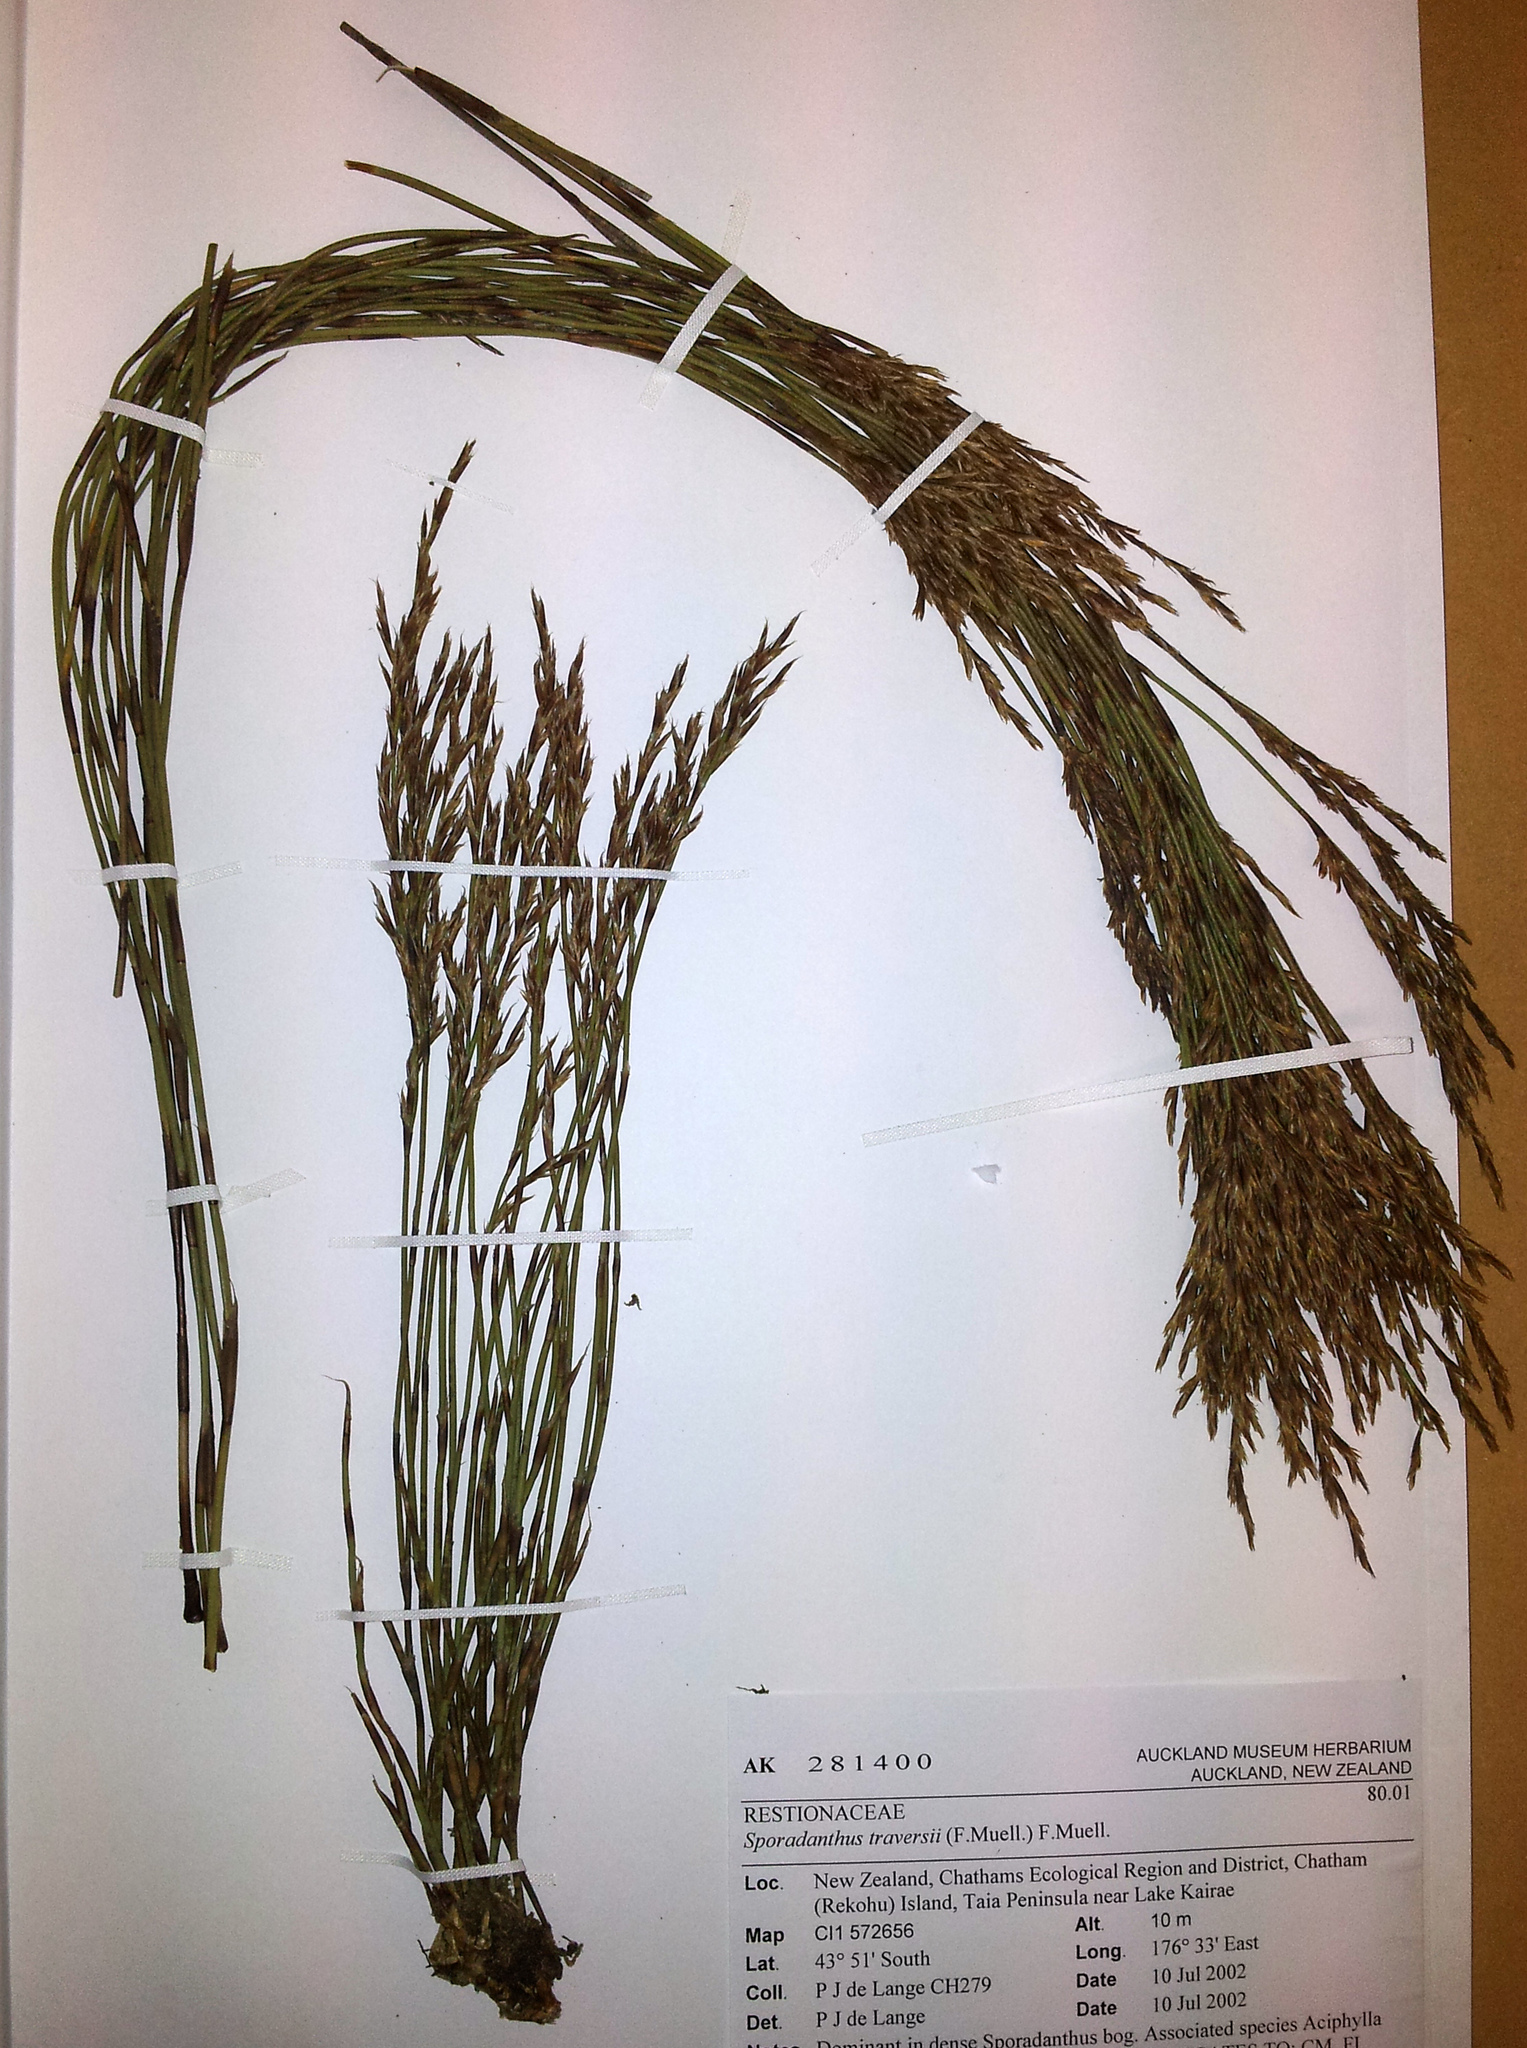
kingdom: Plantae
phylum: Tracheophyta
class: Liliopsida
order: Poales
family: Restionaceae
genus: Sporadanthus
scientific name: Sporadanthus traversii
